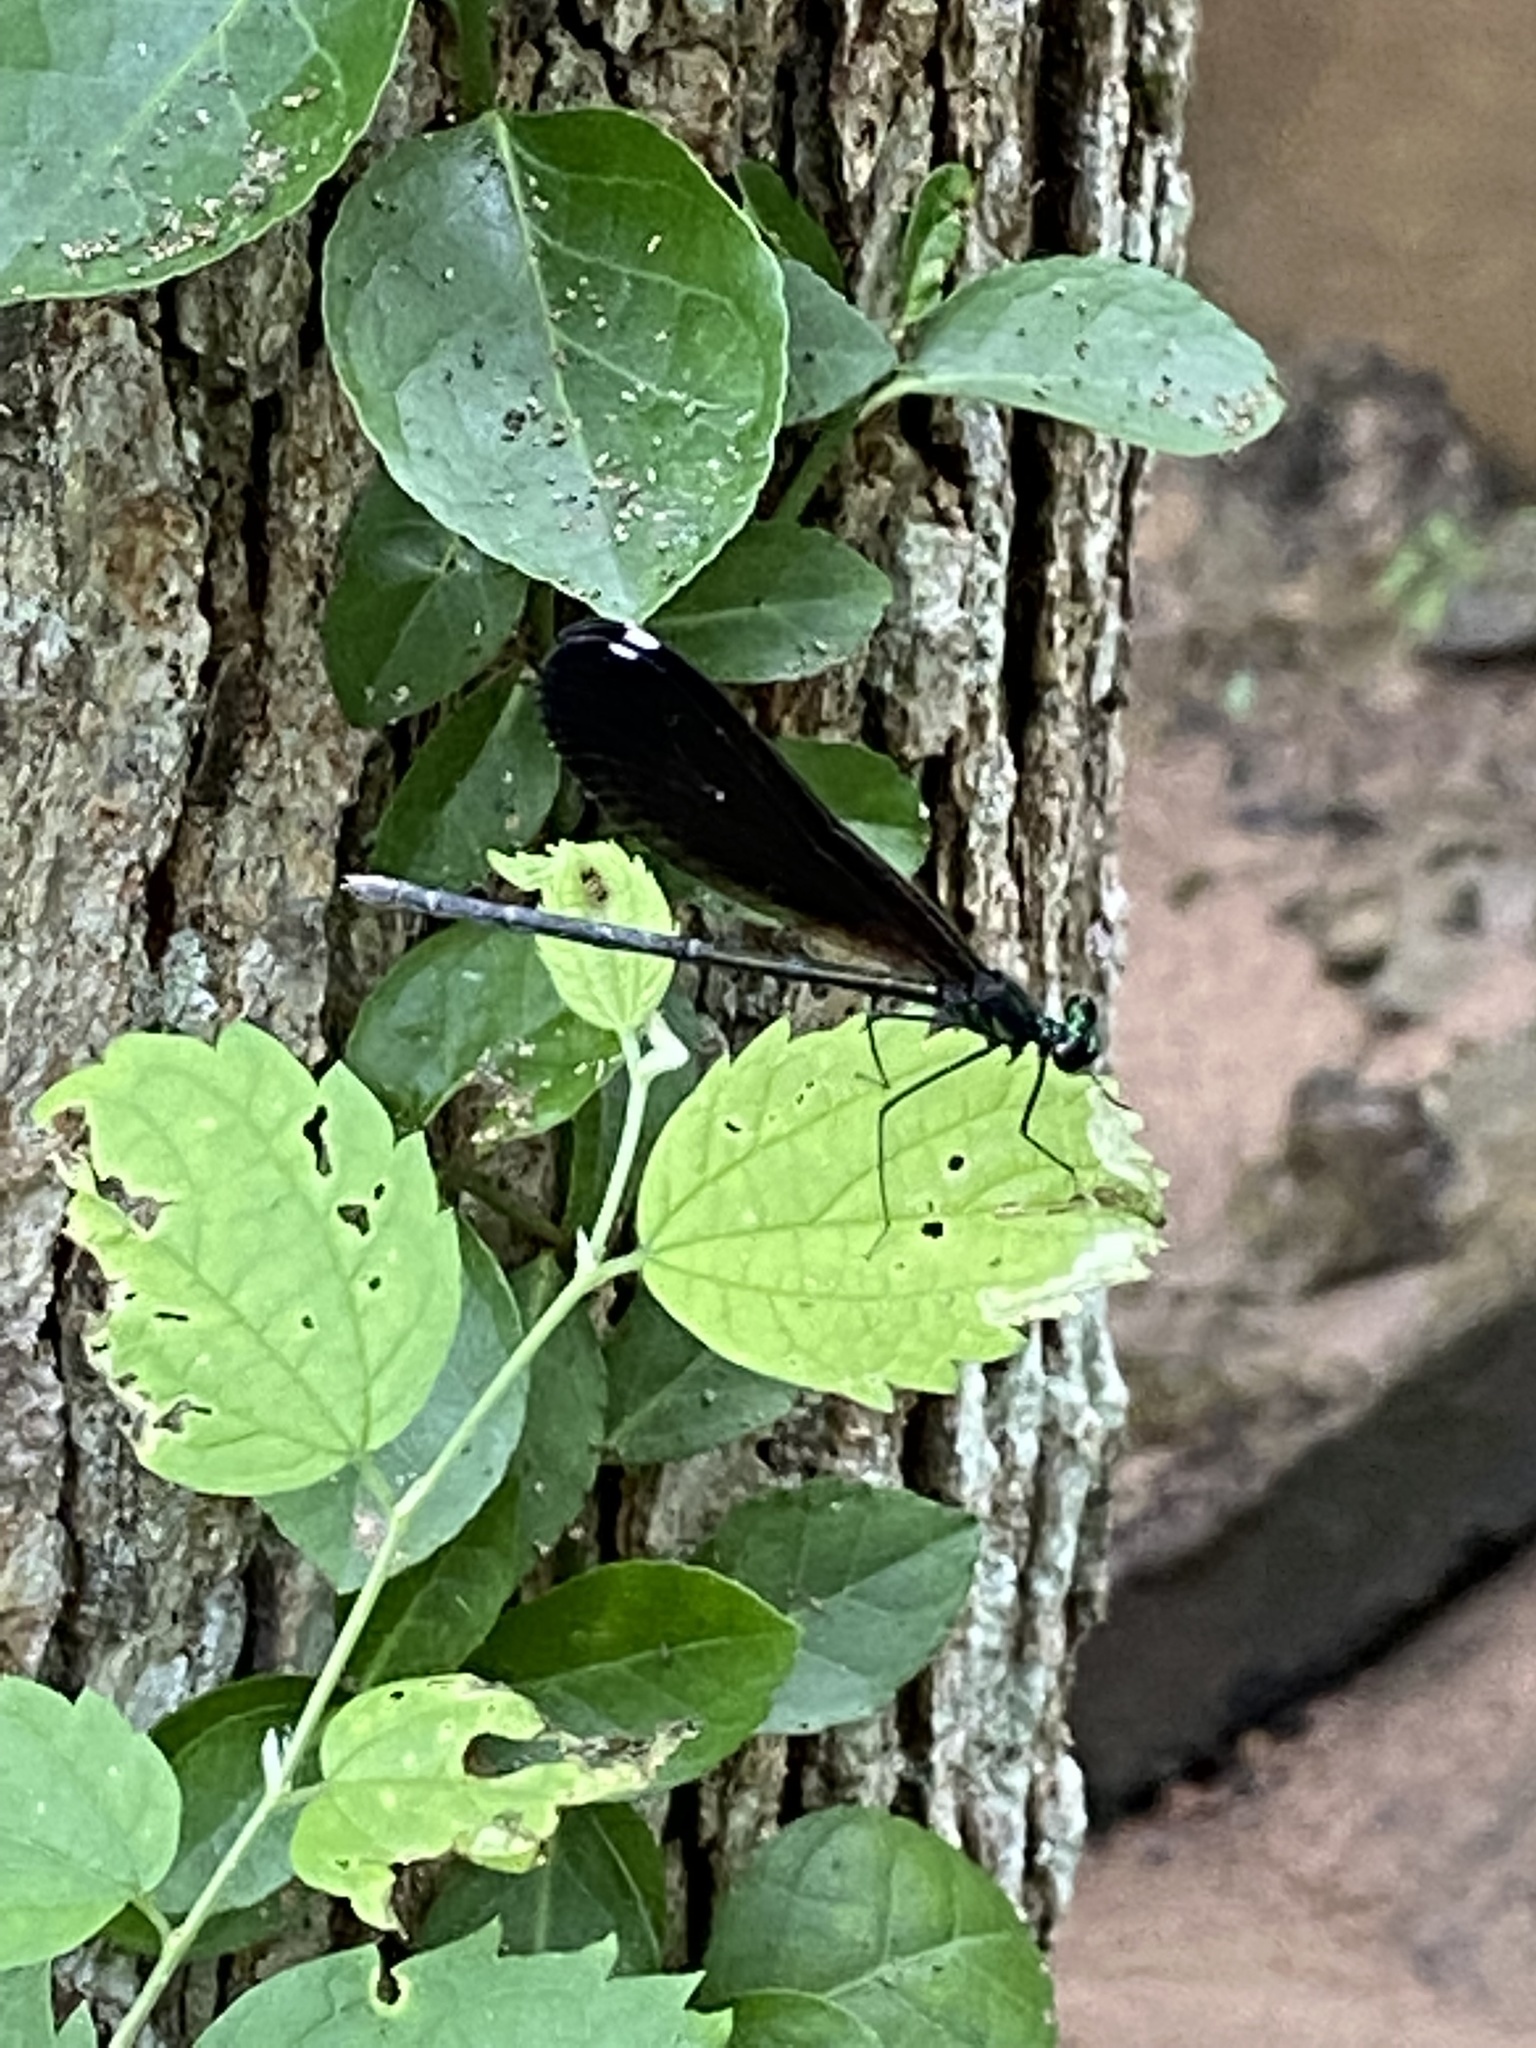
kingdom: Animalia
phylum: Arthropoda
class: Insecta
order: Odonata
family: Calopterygidae
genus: Calopteryx
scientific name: Calopteryx maculata
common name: Ebony jewelwing
